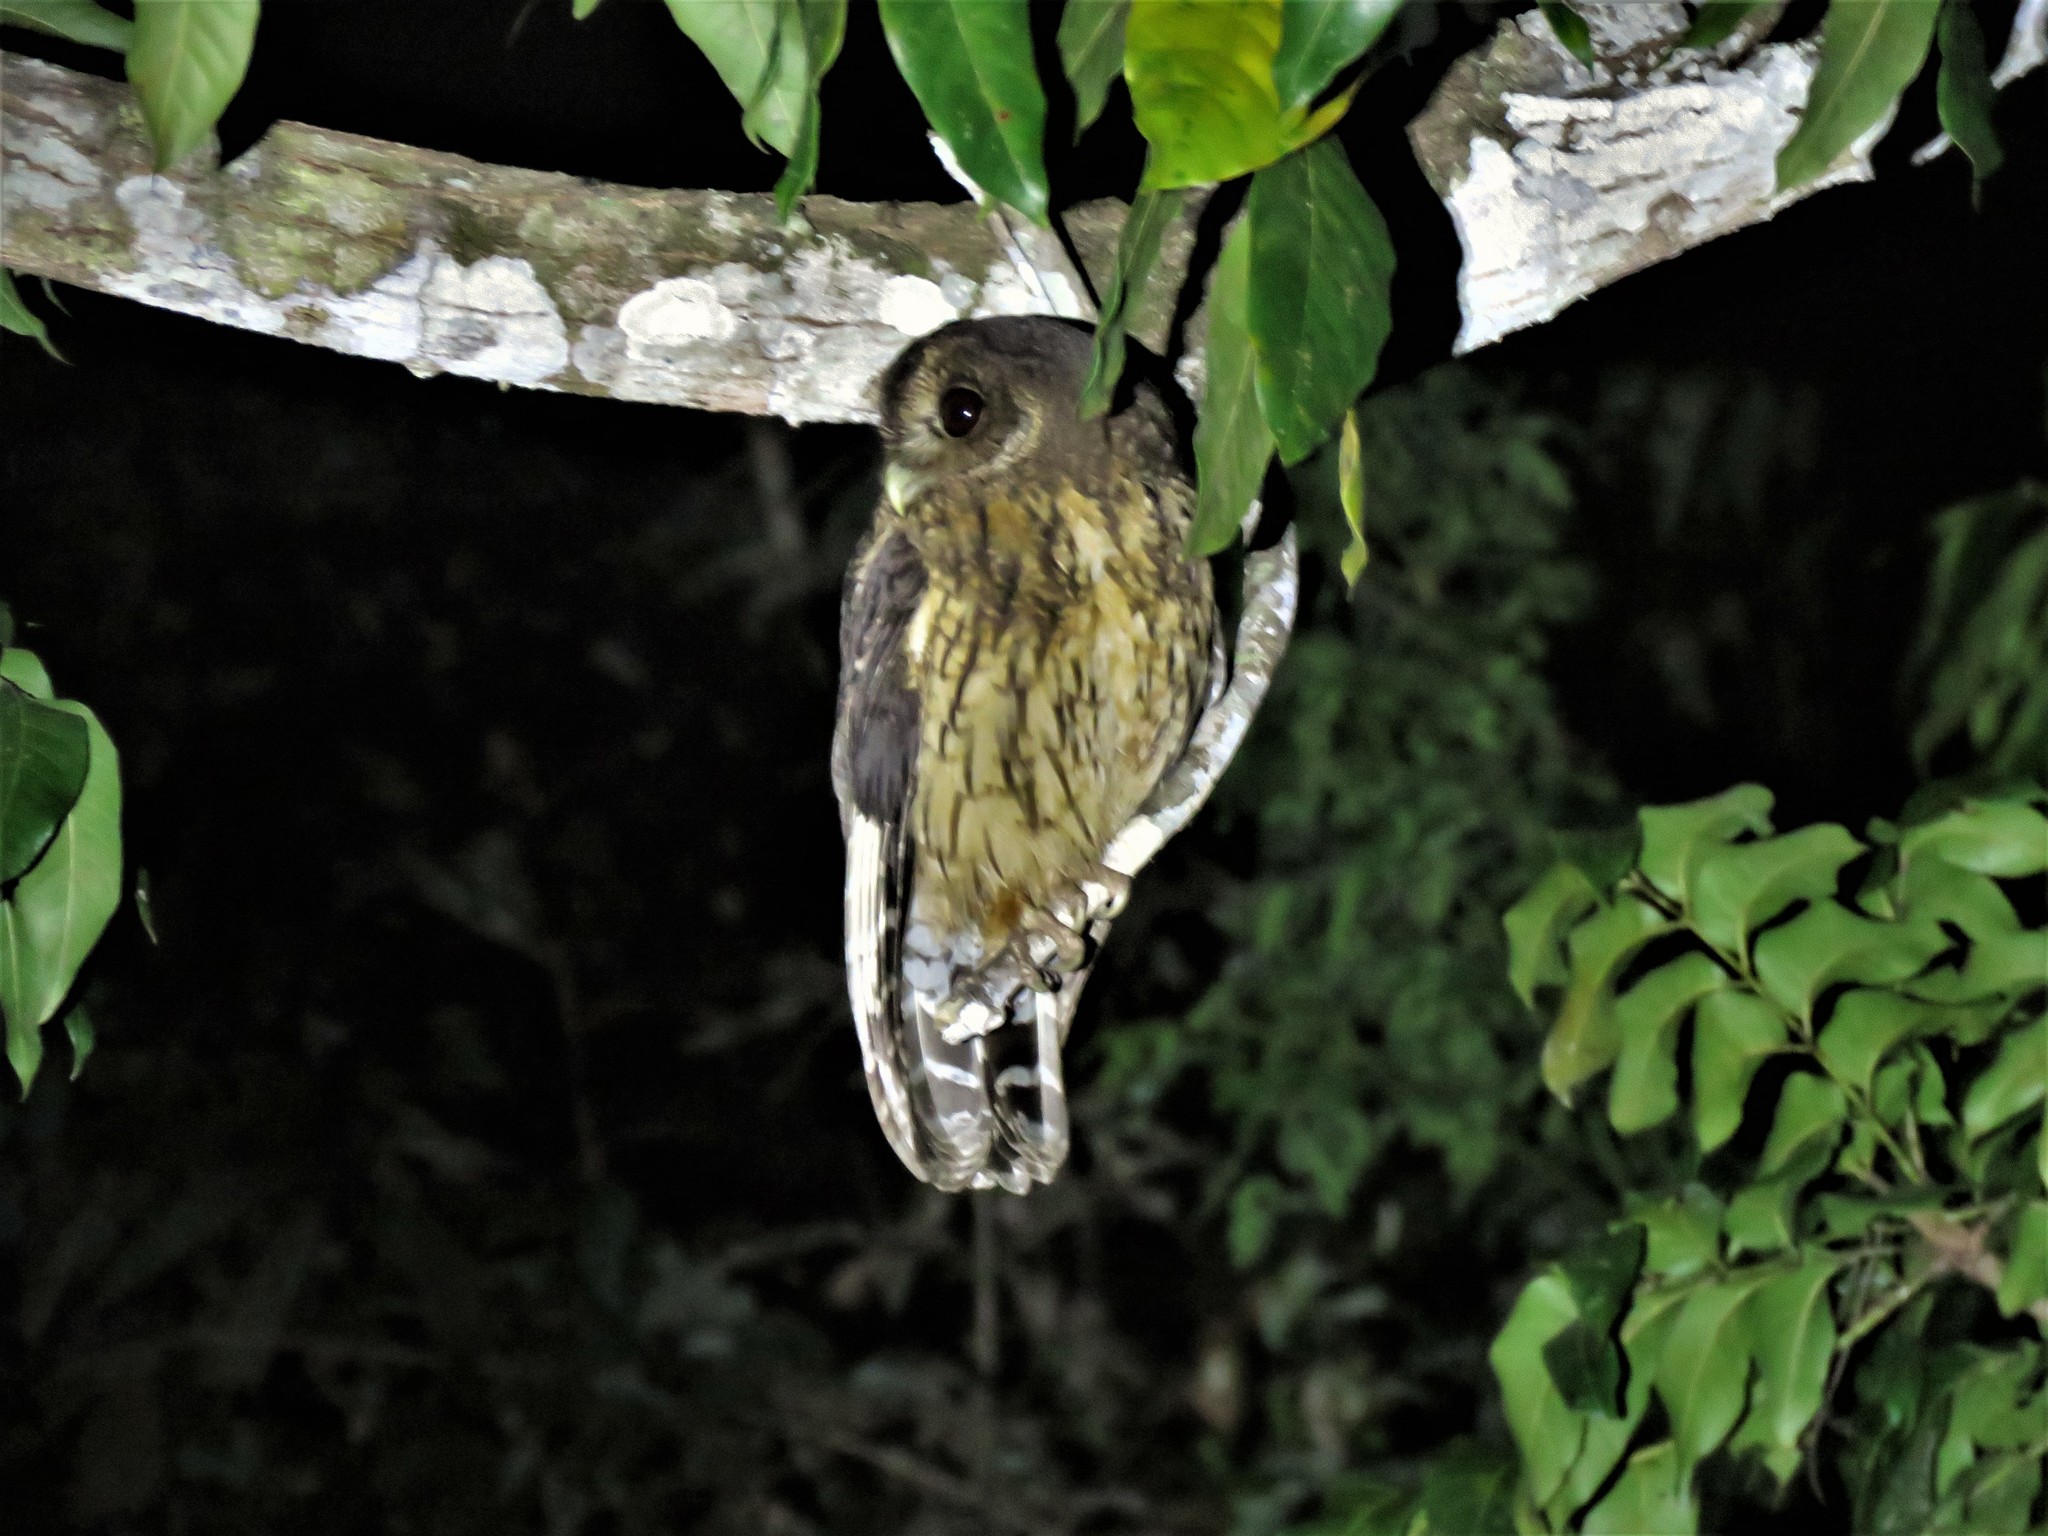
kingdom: Animalia
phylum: Chordata
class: Aves
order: Strigiformes
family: Strigidae
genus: Strix
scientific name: Strix virgata
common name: Mottled owl
